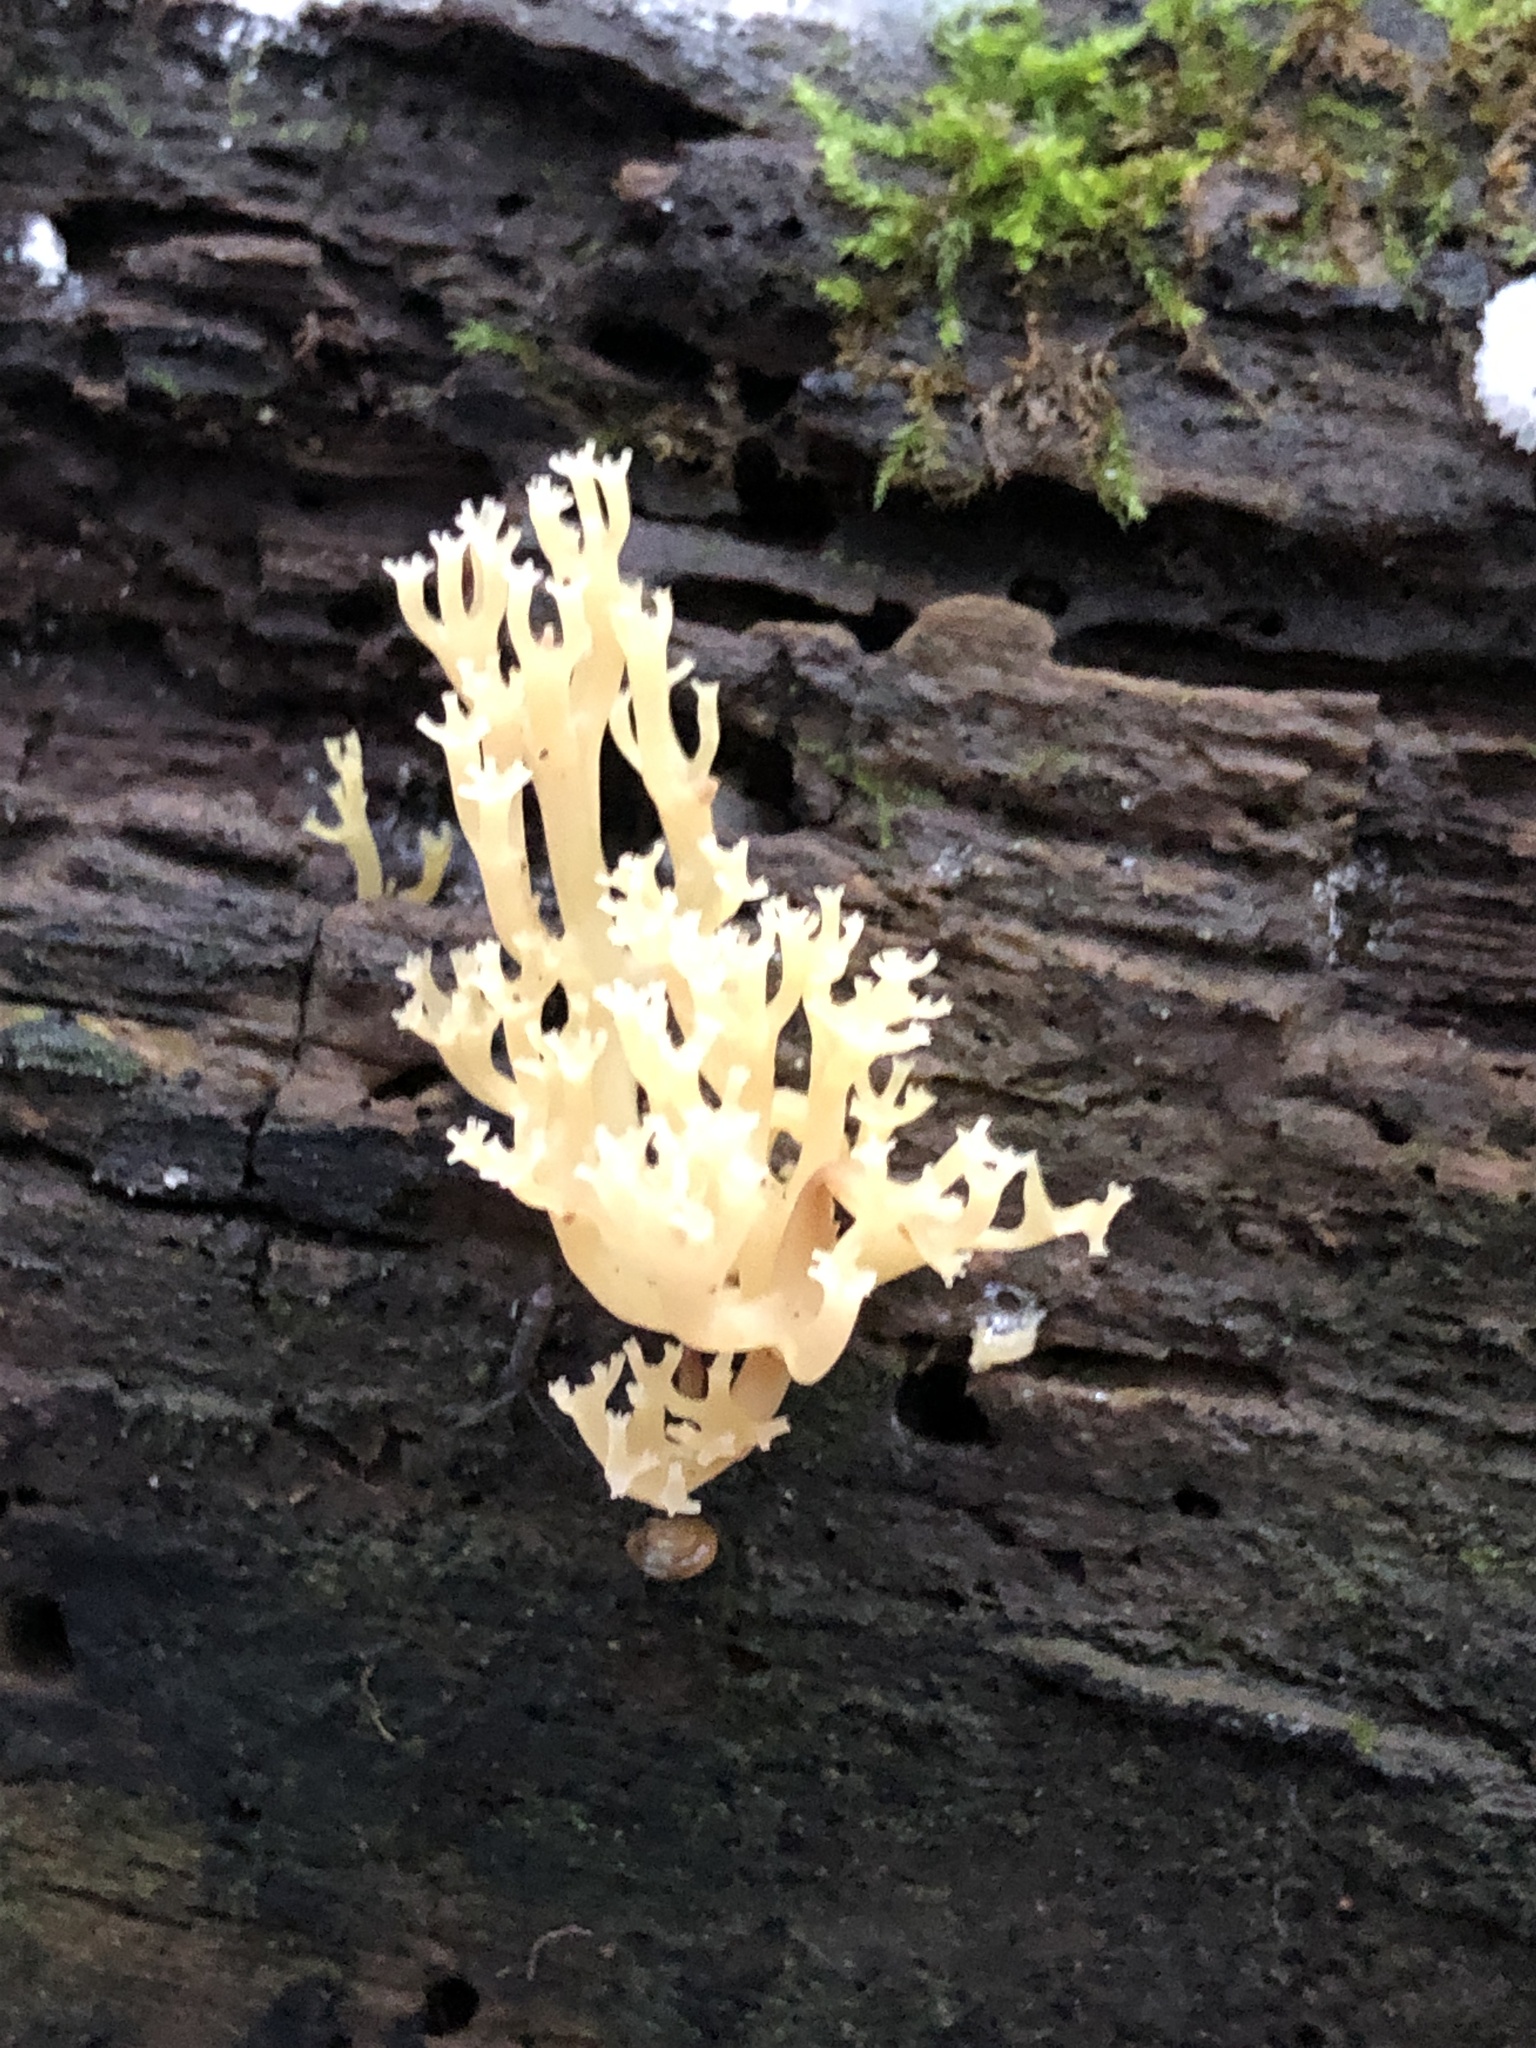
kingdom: Fungi
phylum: Basidiomycota
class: Agaricomycetes
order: Russulales
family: Auriscalpiaceae
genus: Artomyces
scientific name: Artomyces pyxidatus
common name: Crown-tipped coral fungus
